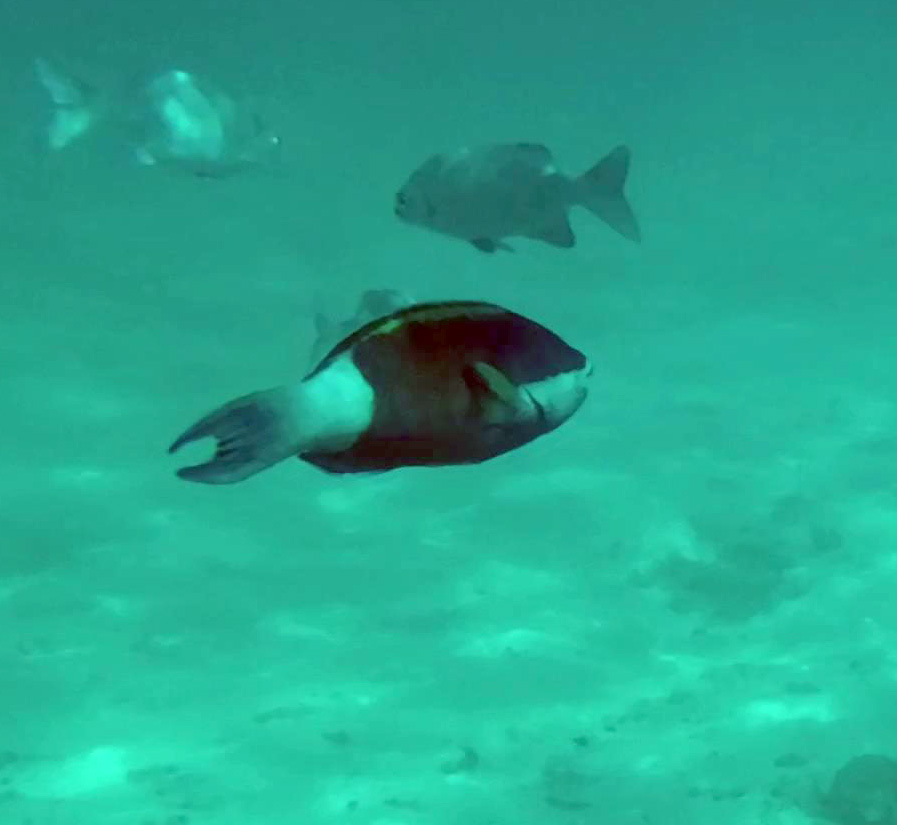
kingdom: Animalia
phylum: Chordata
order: Perciformes
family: Scaridae
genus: Scarus
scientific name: Scarus frenatus
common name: Bridled parrotfish
